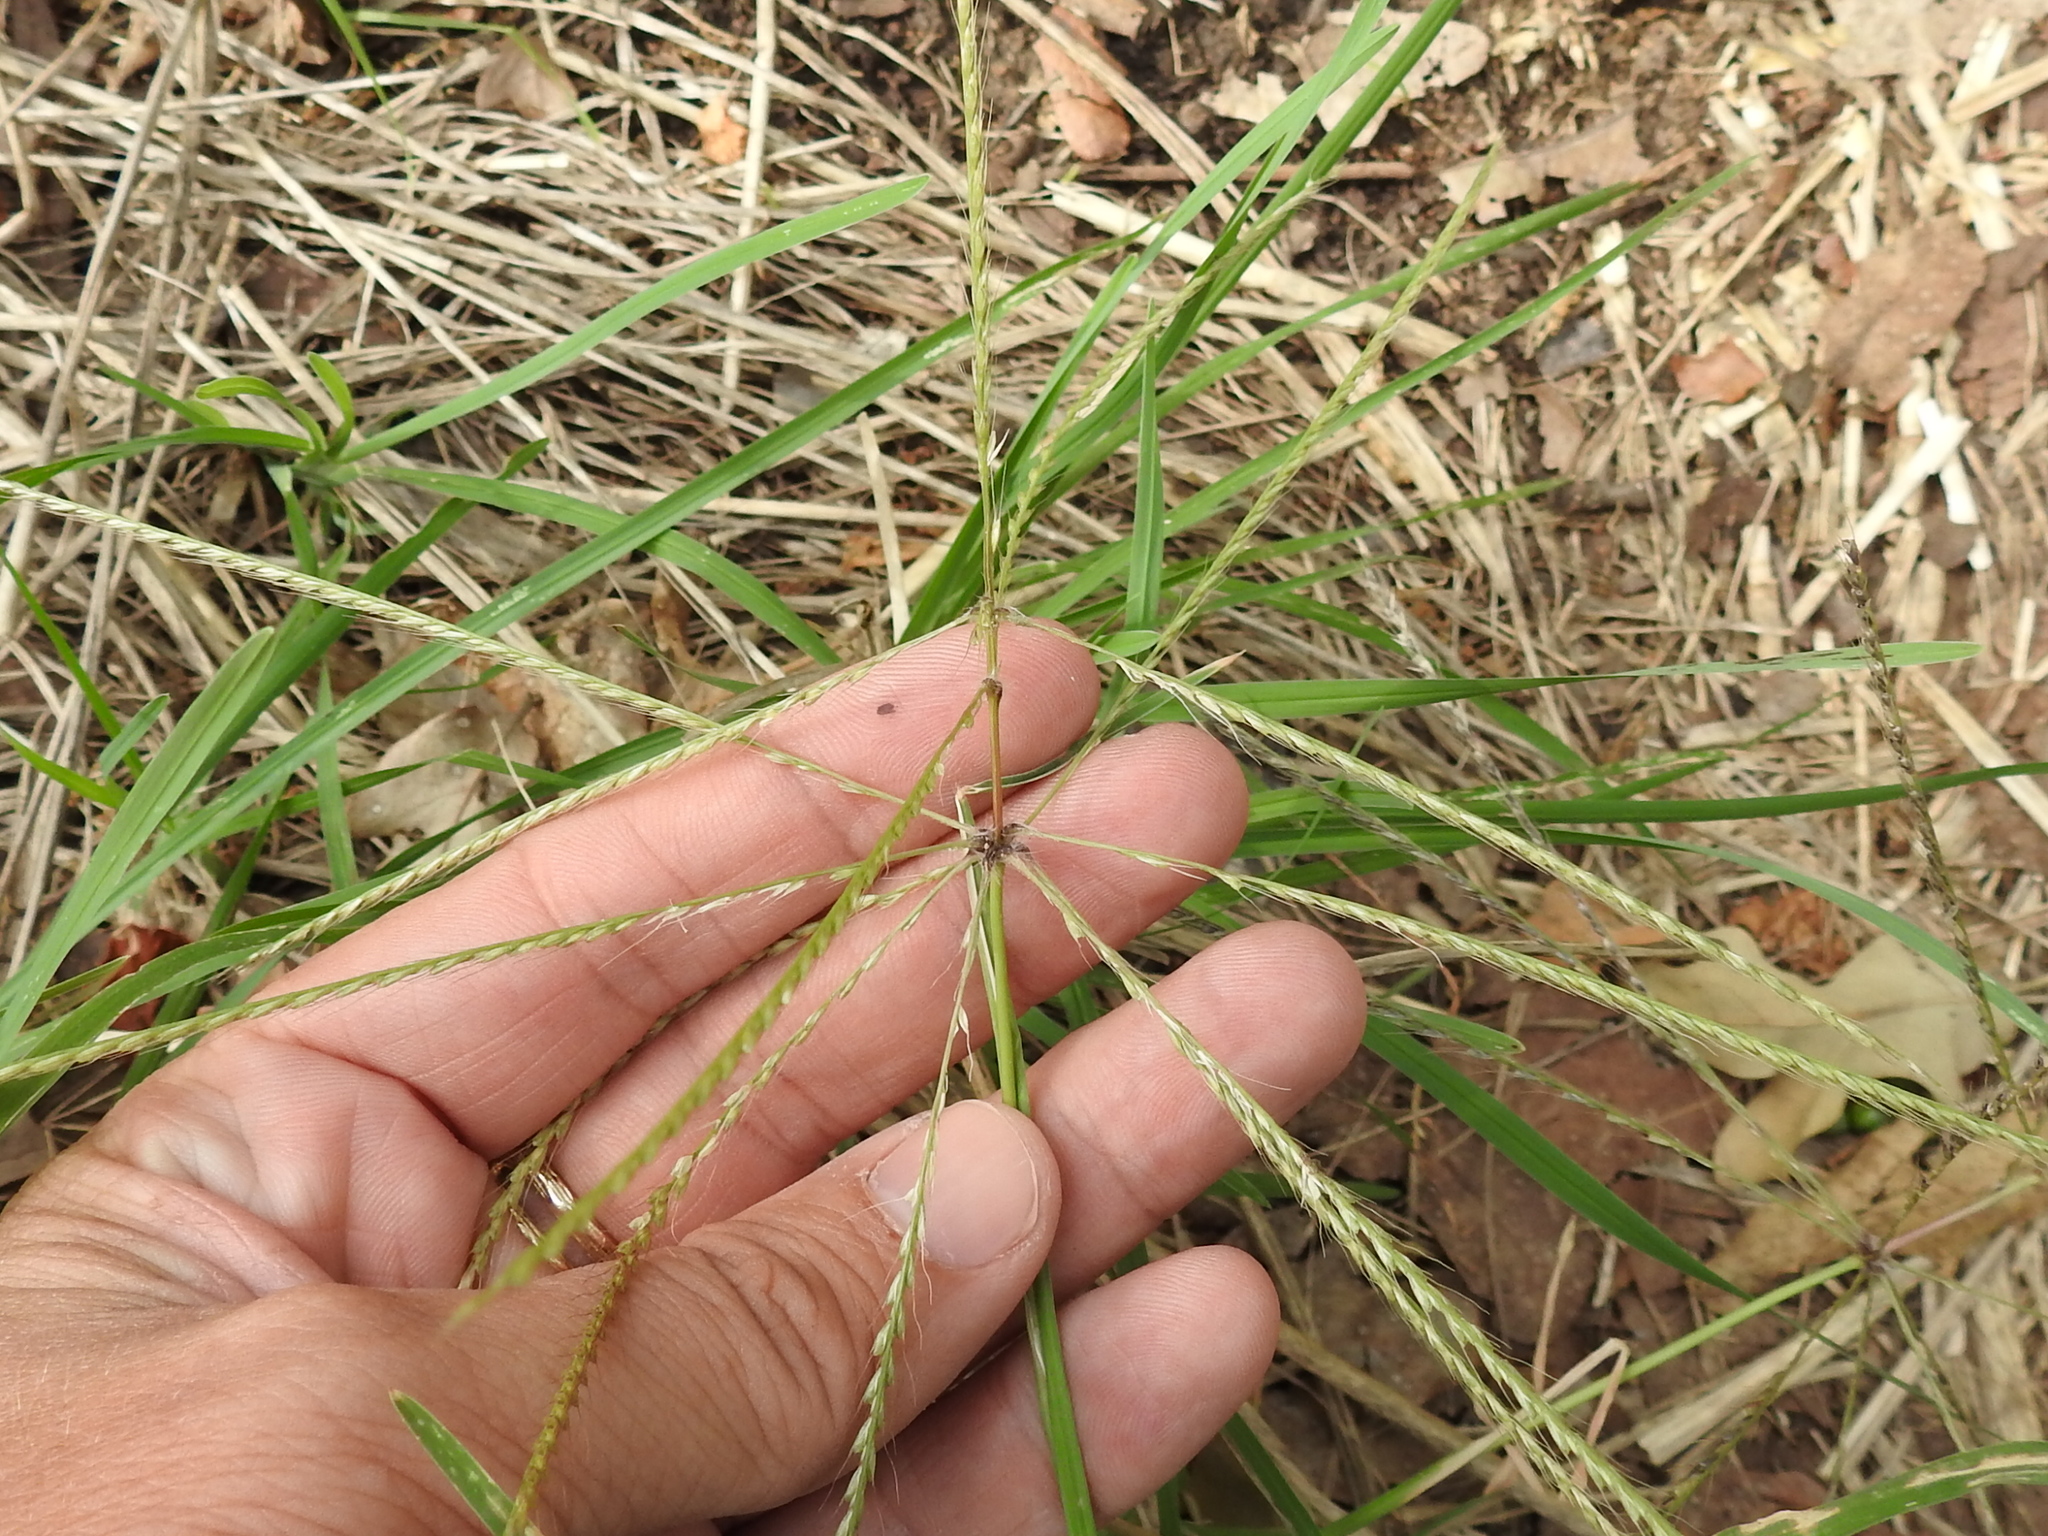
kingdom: Plantae
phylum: Tracheophyta
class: Liliopsida
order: Poales
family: Poaceae
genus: Chloris
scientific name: Chloris verticillata
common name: Tumble windmill grass
